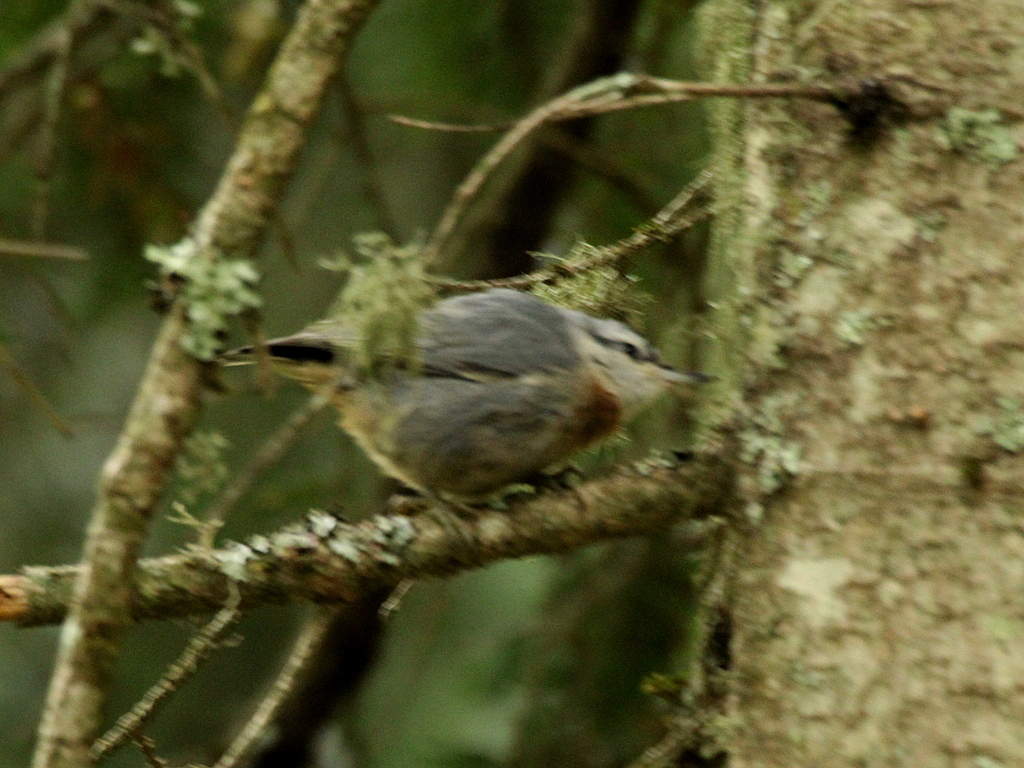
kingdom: Animalia
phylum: Chordata
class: Aves
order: Passeriformes
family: Sittidae
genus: Sitta
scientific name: Sitta krueperi
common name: Krüper's nuthatch
